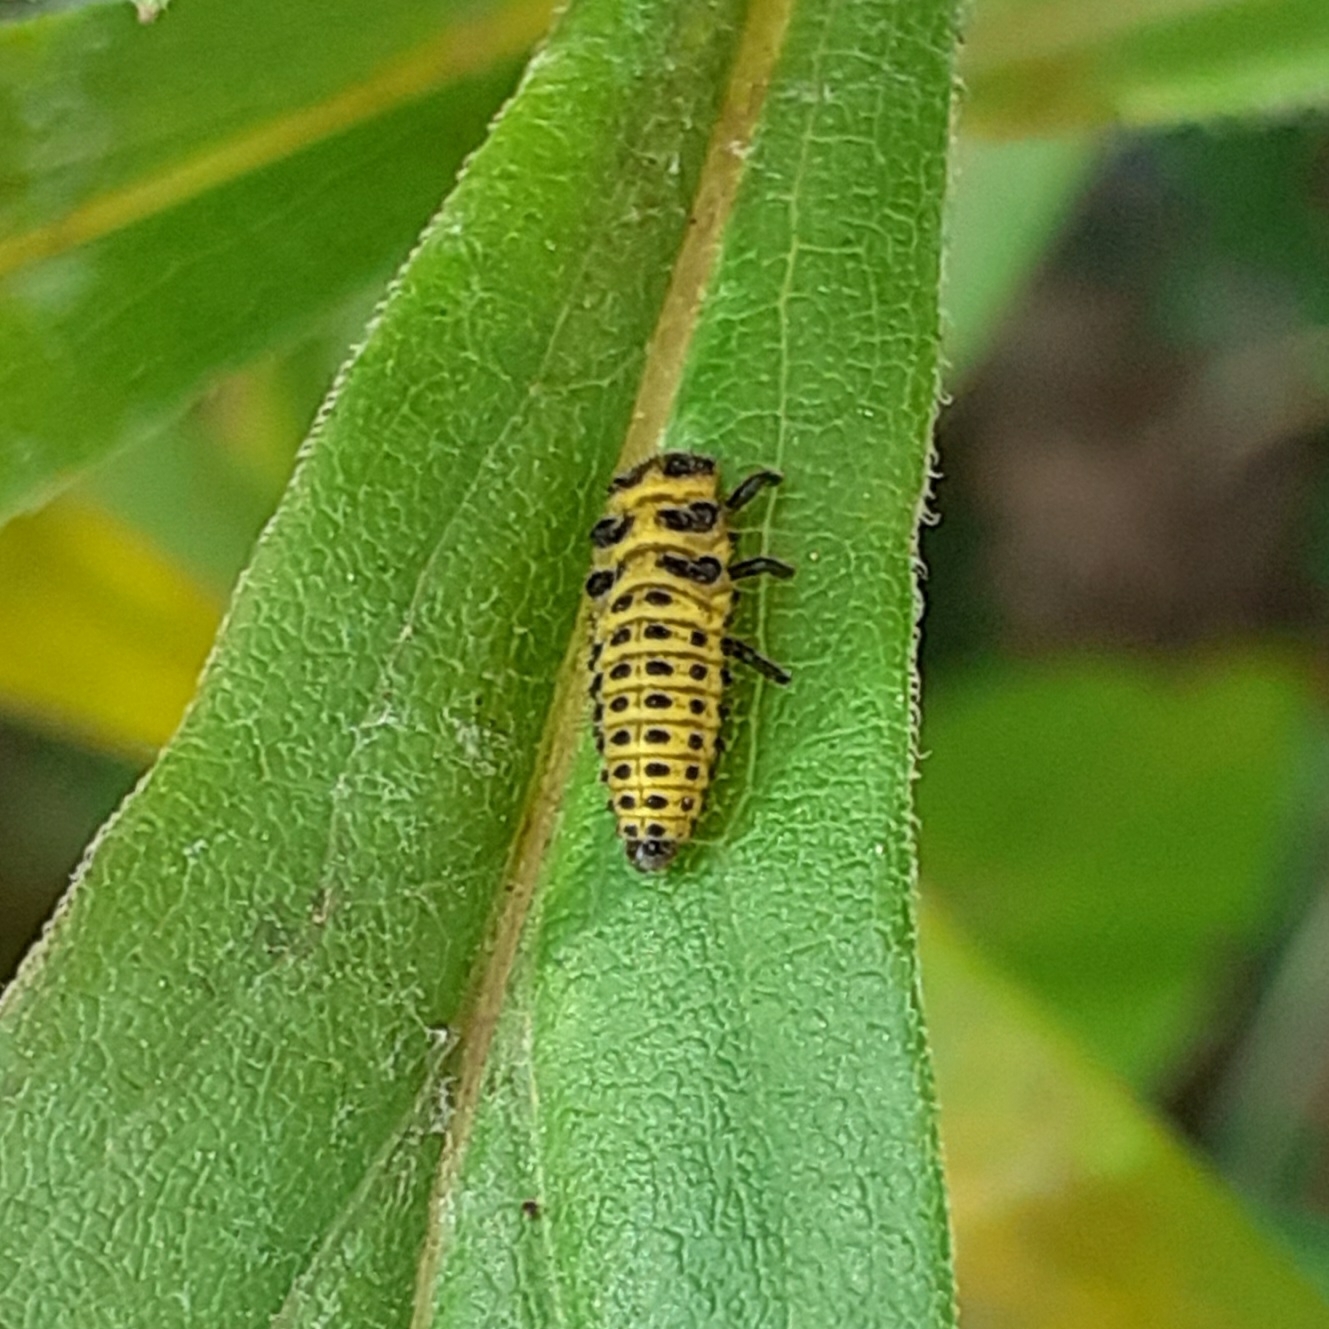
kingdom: Animalia
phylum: Arthropoda
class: Insecta
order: Coleoptera
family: Coccinellidae
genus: Psyllobora
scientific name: Psyllobora vigintiduopunctata
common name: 22-spot ladybird
